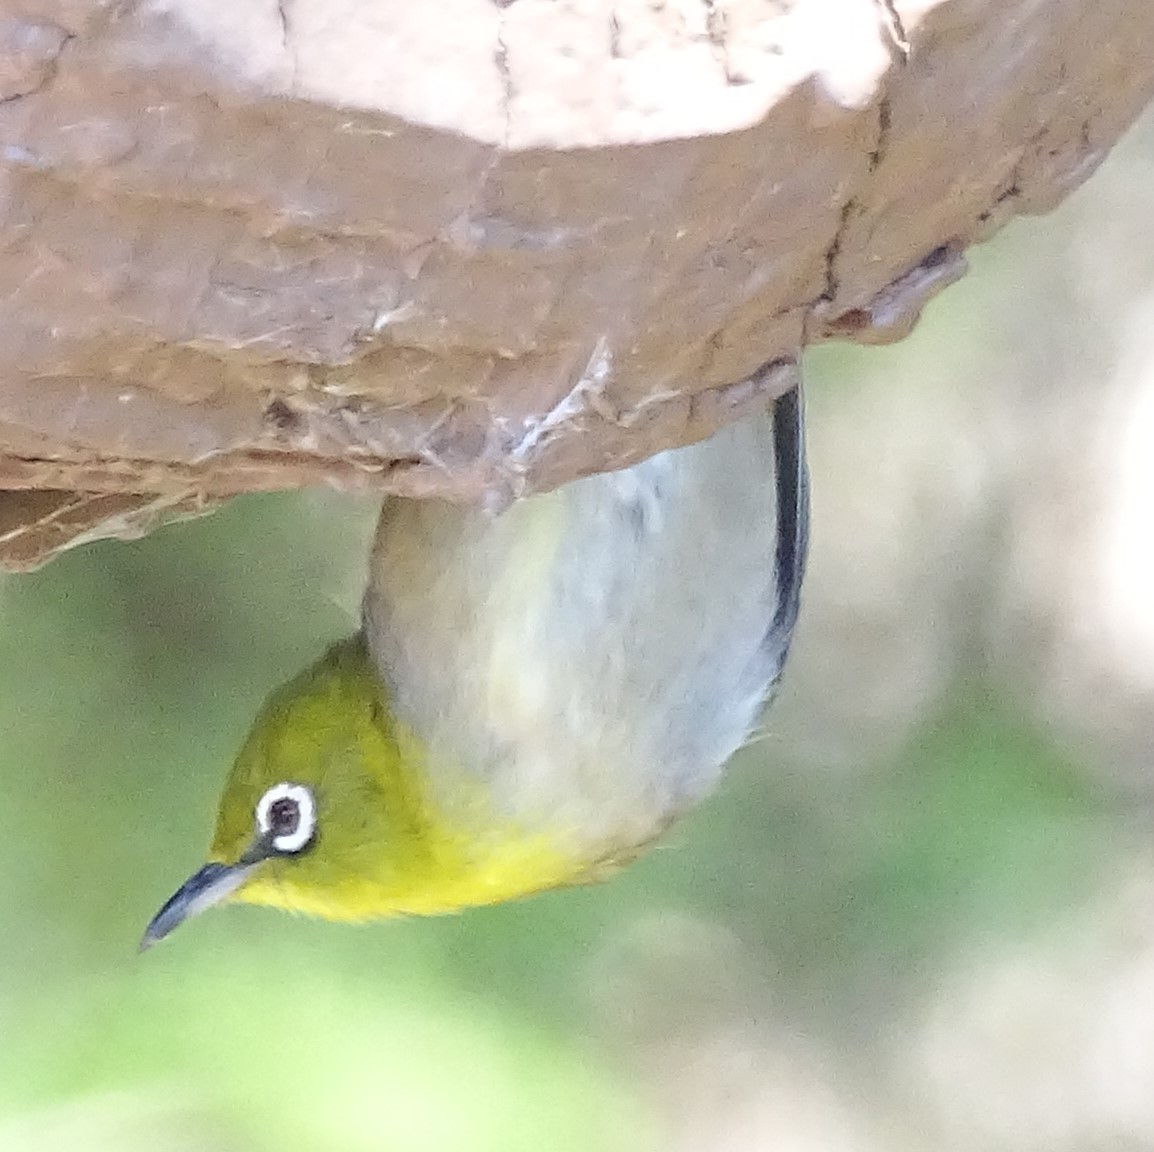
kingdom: Animalia
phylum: Chordata
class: Aves
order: Passeriformes
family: Zosteropidae
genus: Zosterops
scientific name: Zosterops japonicus
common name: Japanese white-eye
